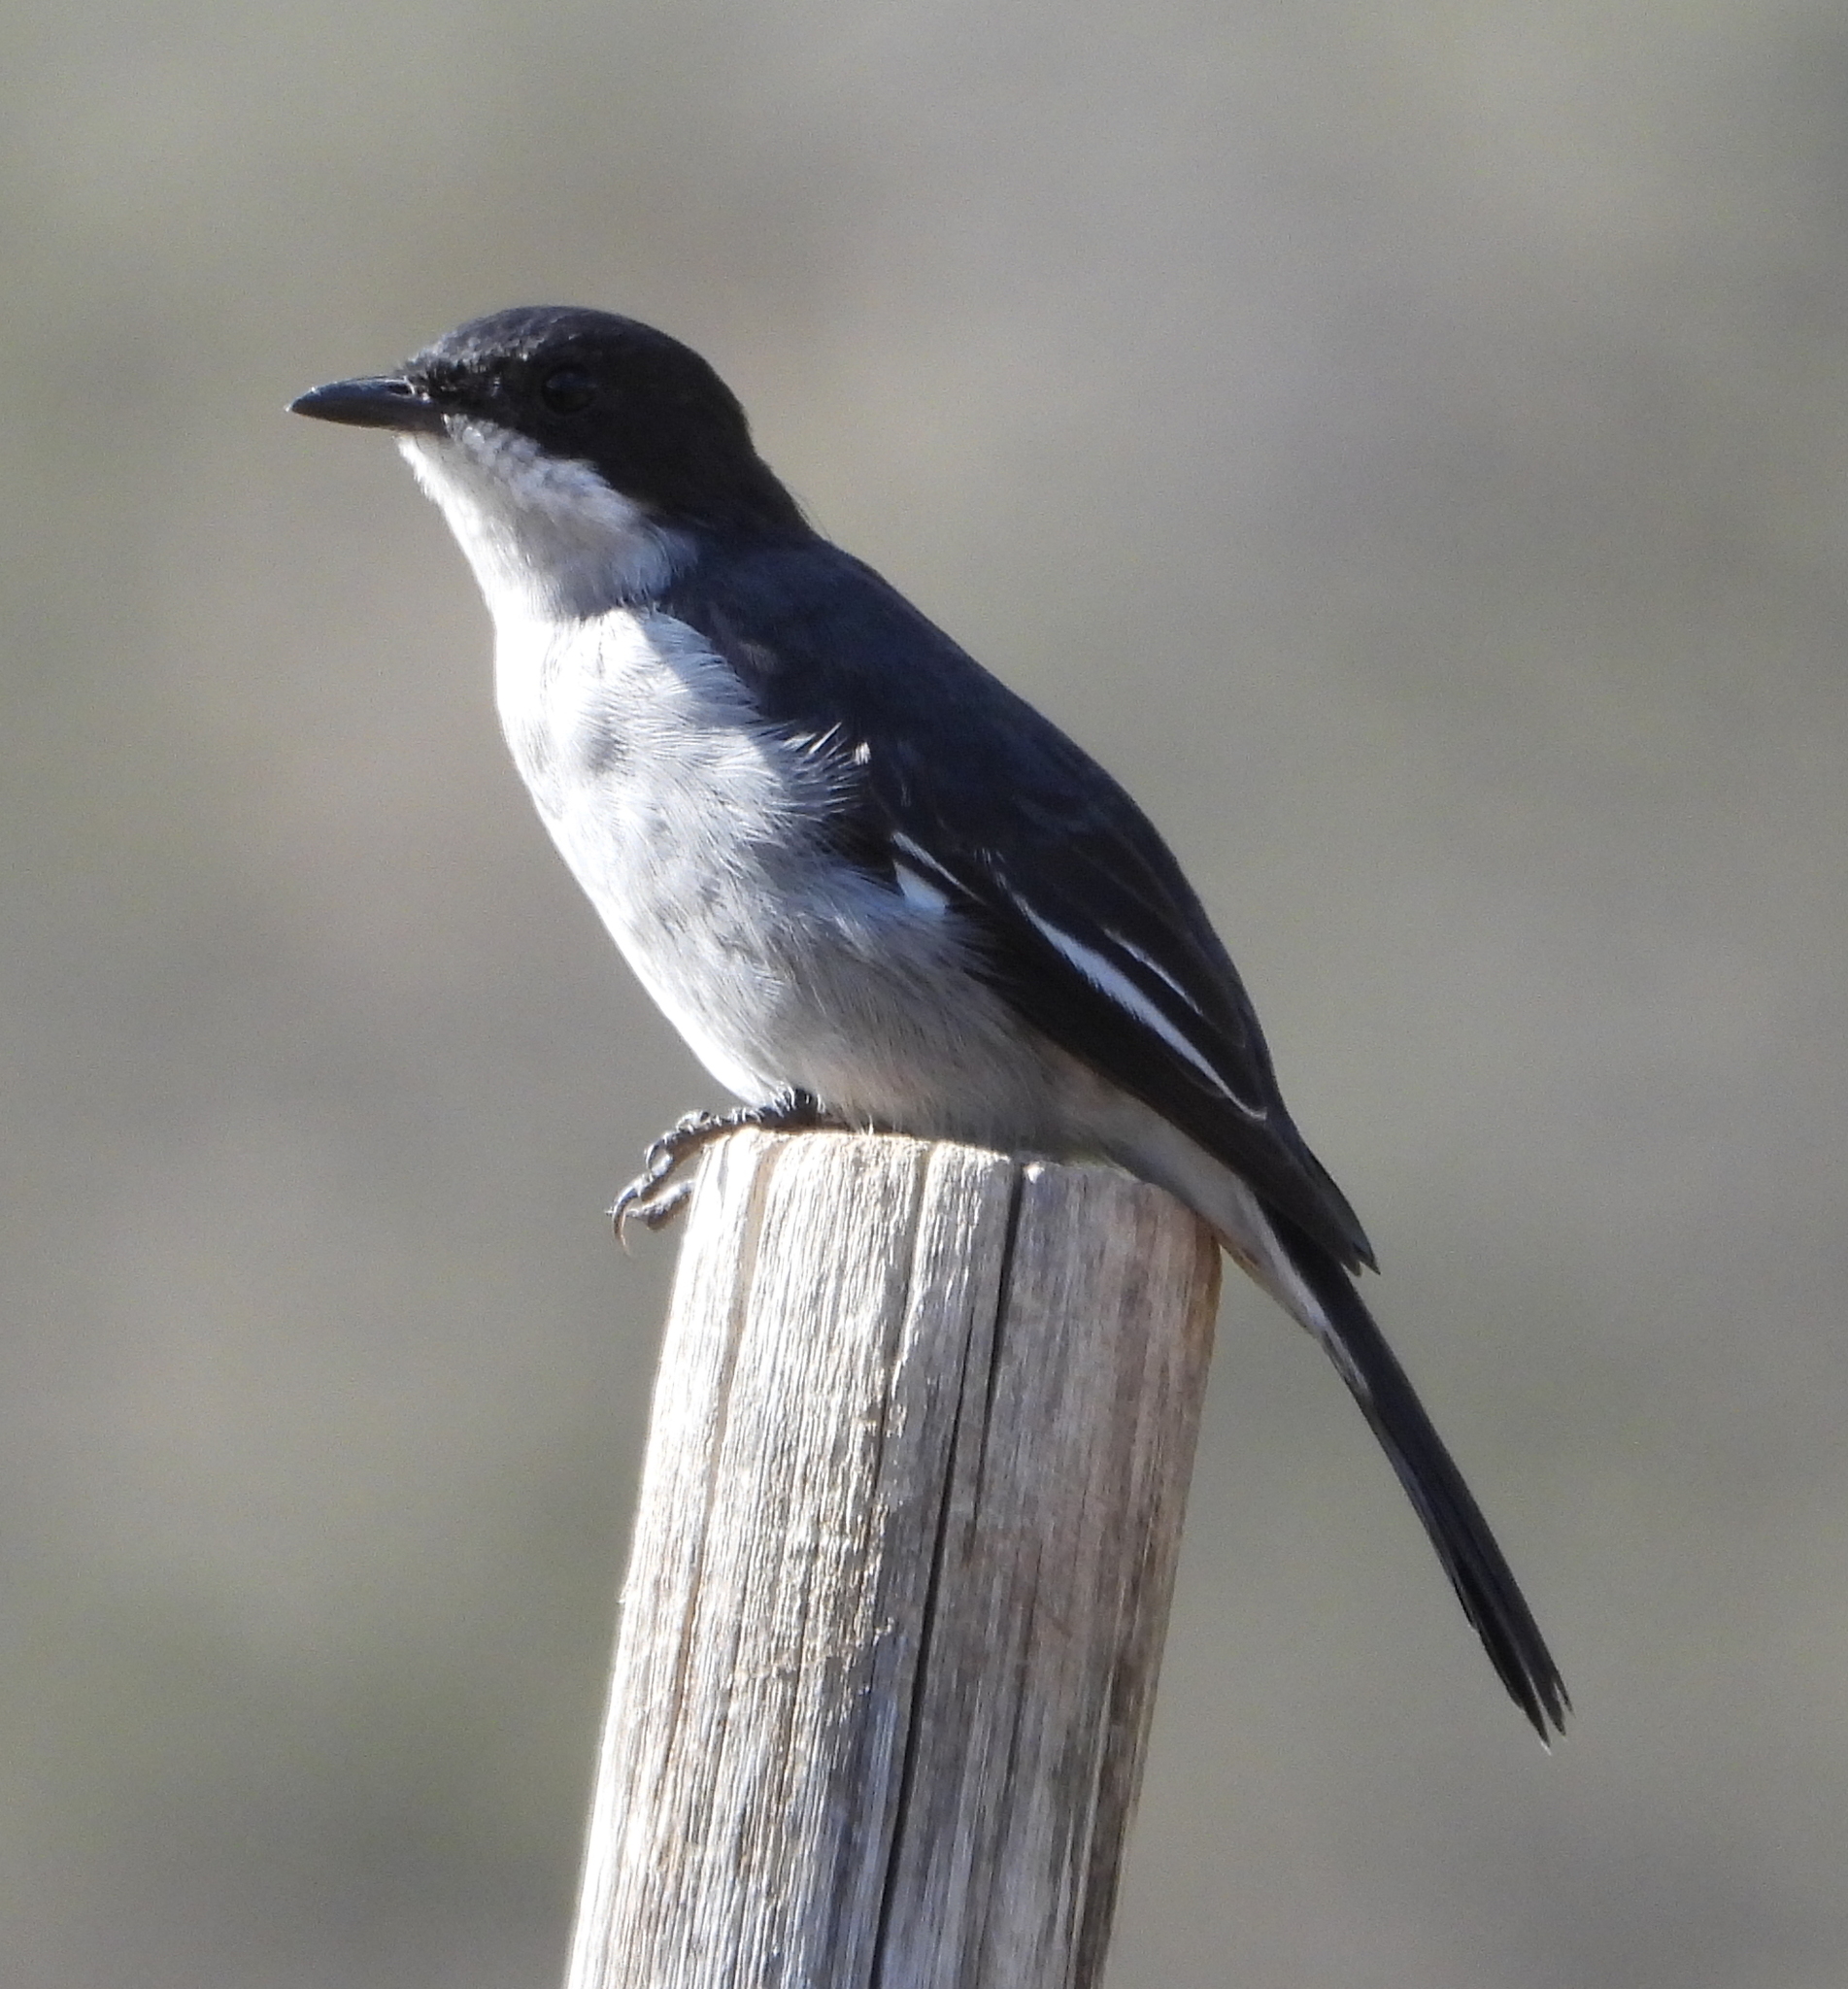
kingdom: Animalia
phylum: Chordata
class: Aves
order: Passeriformes
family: Muscicapidae
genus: Sigelus
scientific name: Sigelus silens
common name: Fiscal flycatcher
